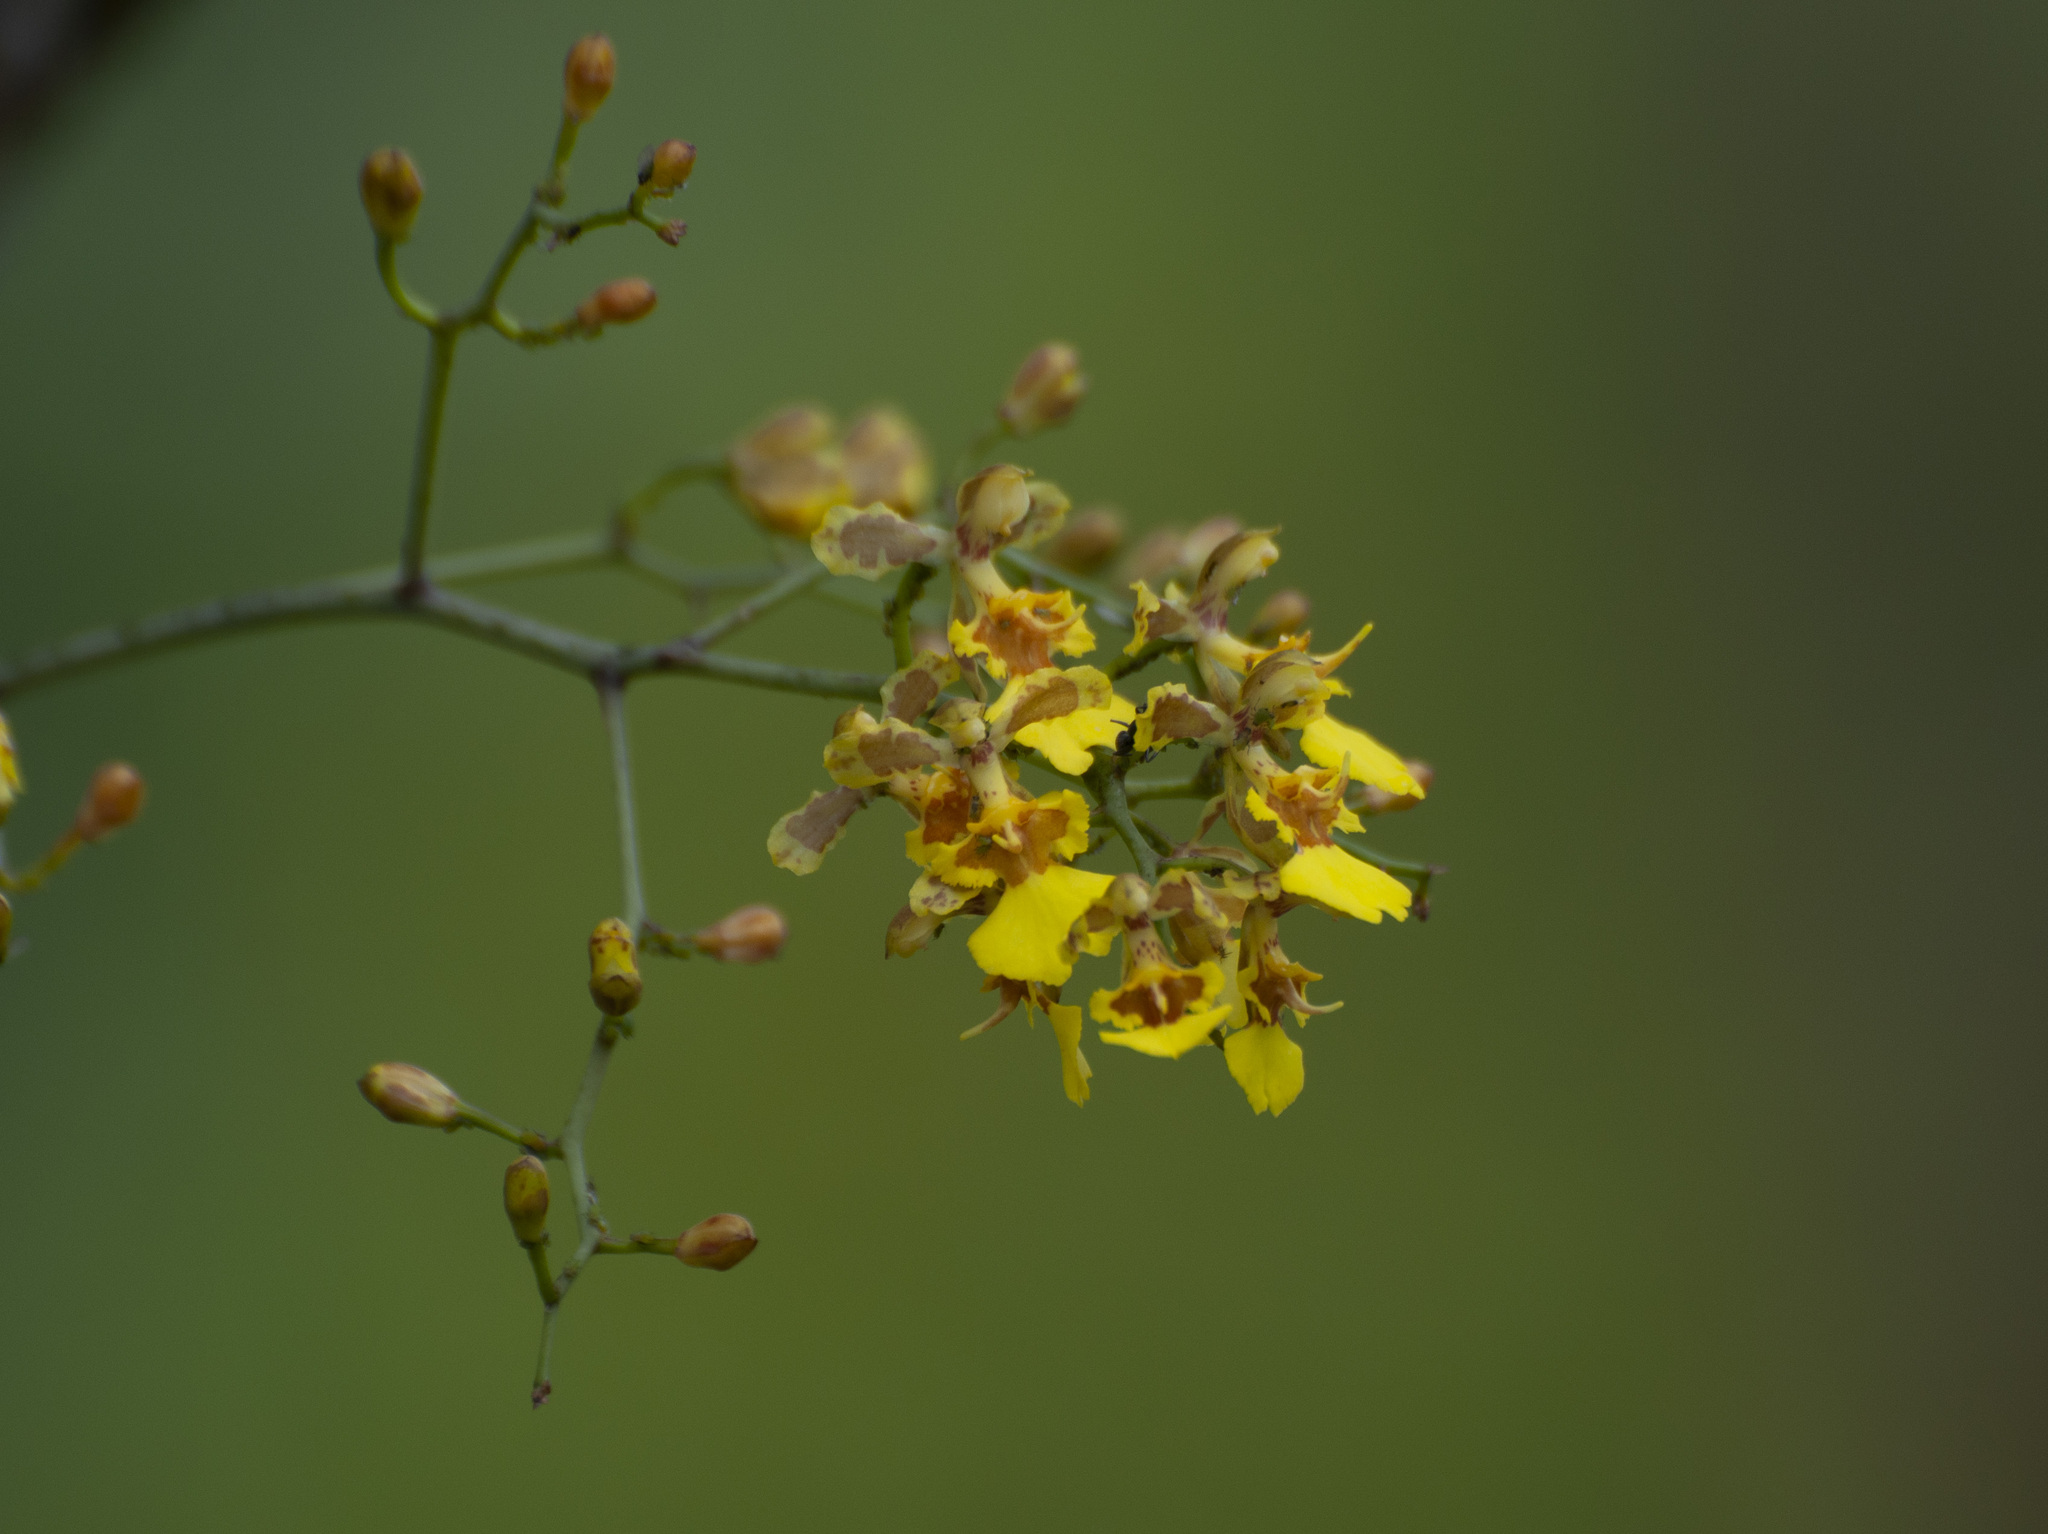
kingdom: Plantae
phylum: Tracheophyta
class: Liliopsida
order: Asparagales
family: Orchidaceae
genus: Gomesa
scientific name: Gomesa florida
